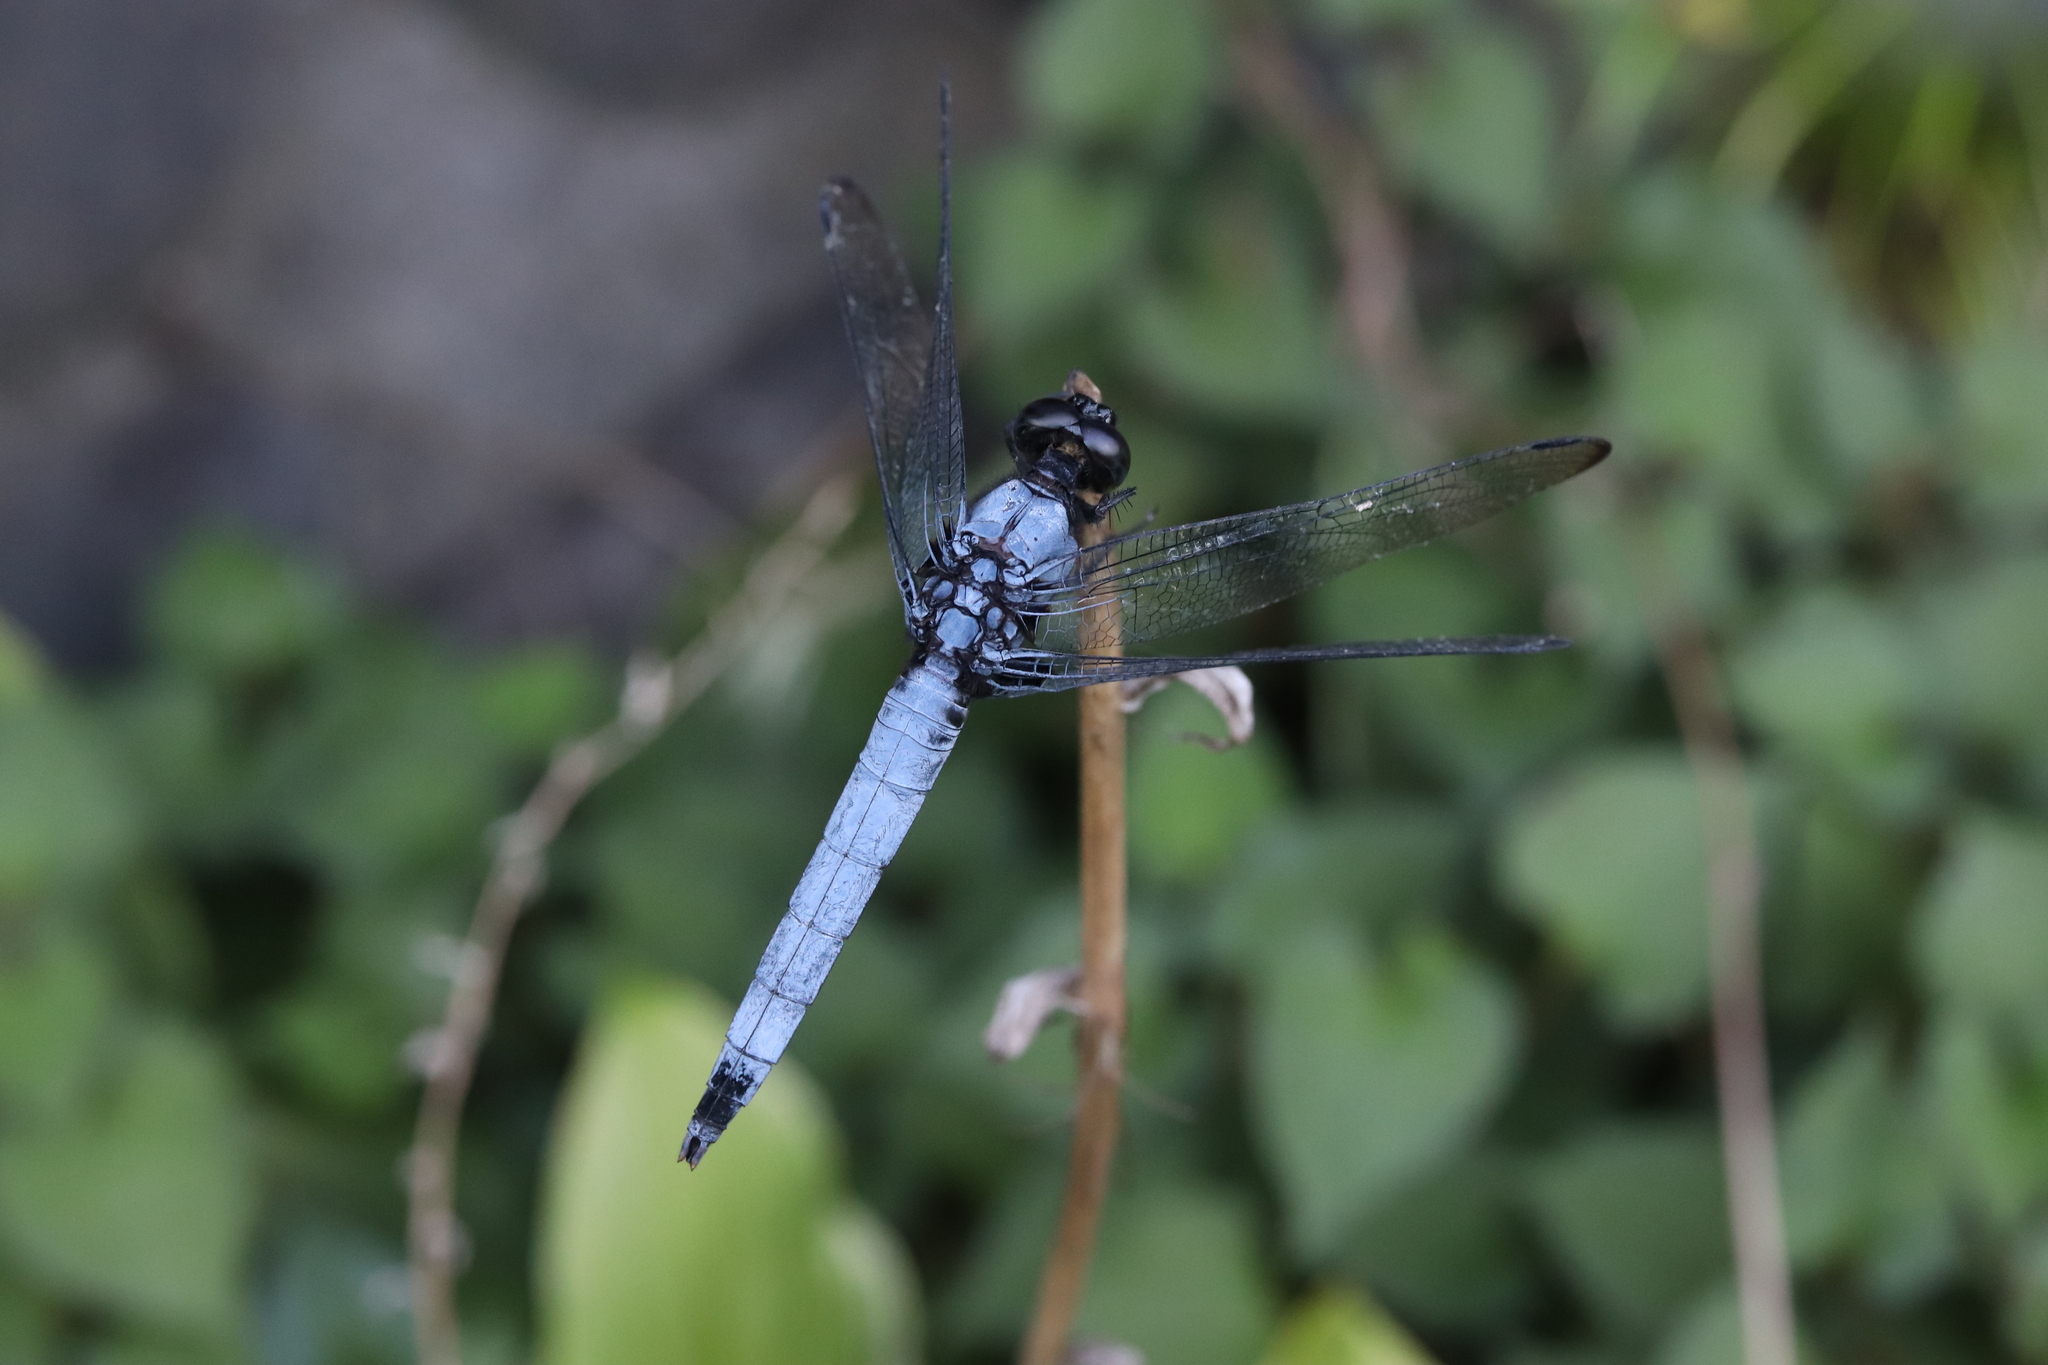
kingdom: Animalia
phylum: Arthropoda
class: Insecta
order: Odonata
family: Libellulidae
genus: Orthetrum
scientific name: Orthetrum melania
